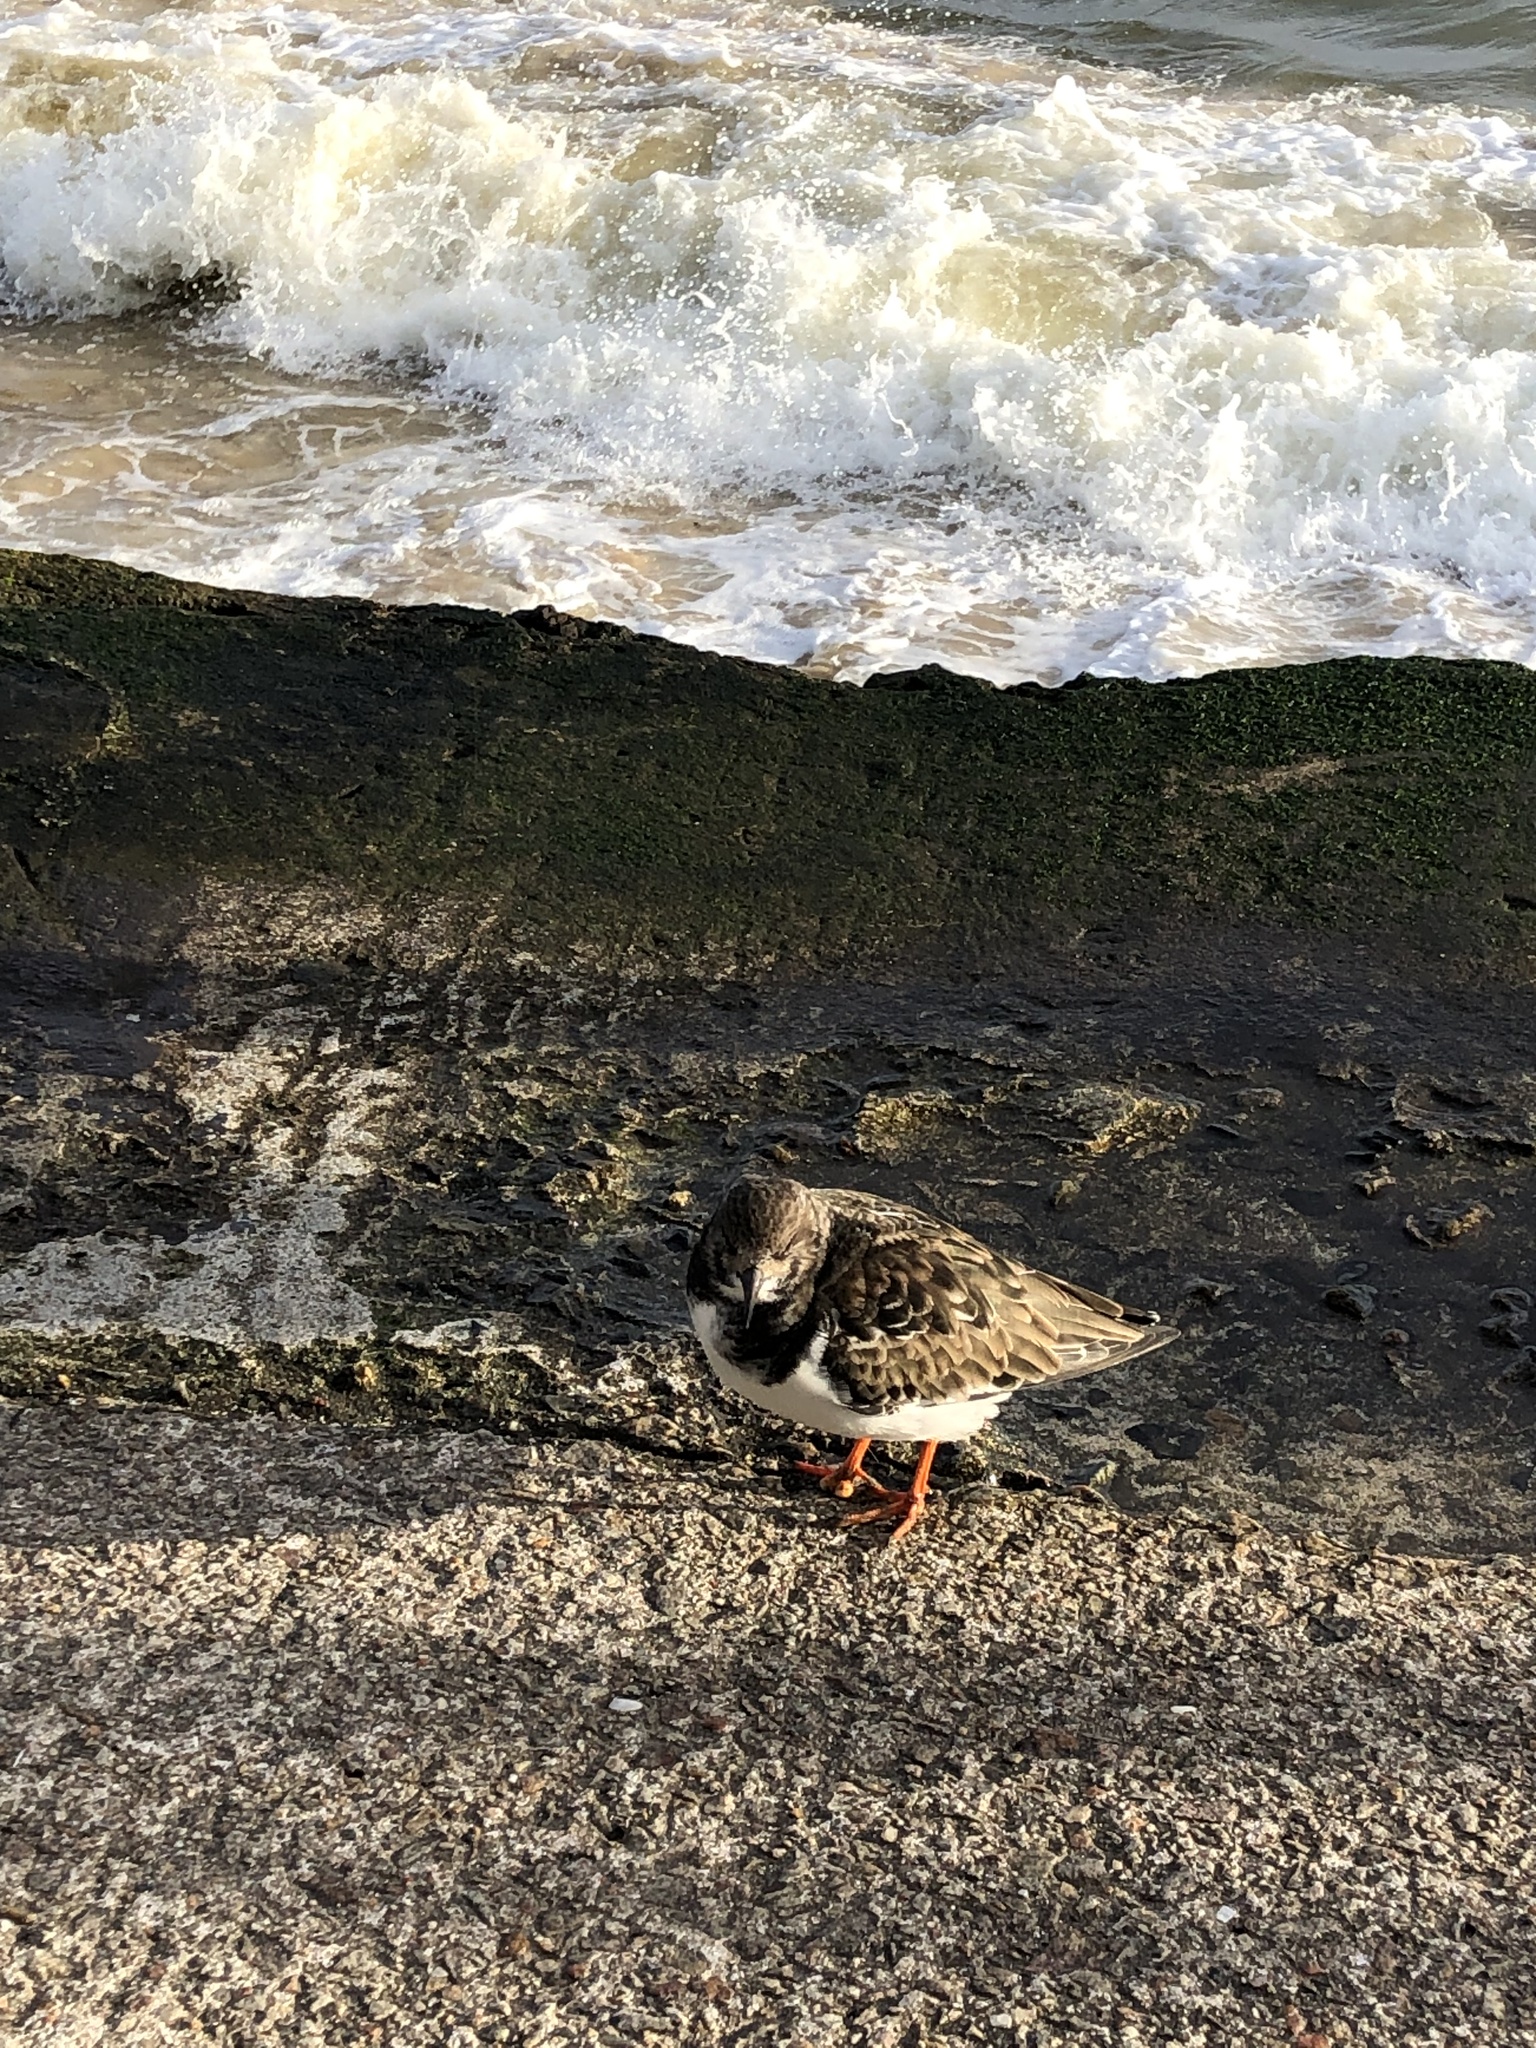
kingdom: Animalia
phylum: Chordata
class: Aves
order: Charadriiformes
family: Scolopacidae
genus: Arenaria
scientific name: Arenaria interpres
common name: Ruddy turnstone
